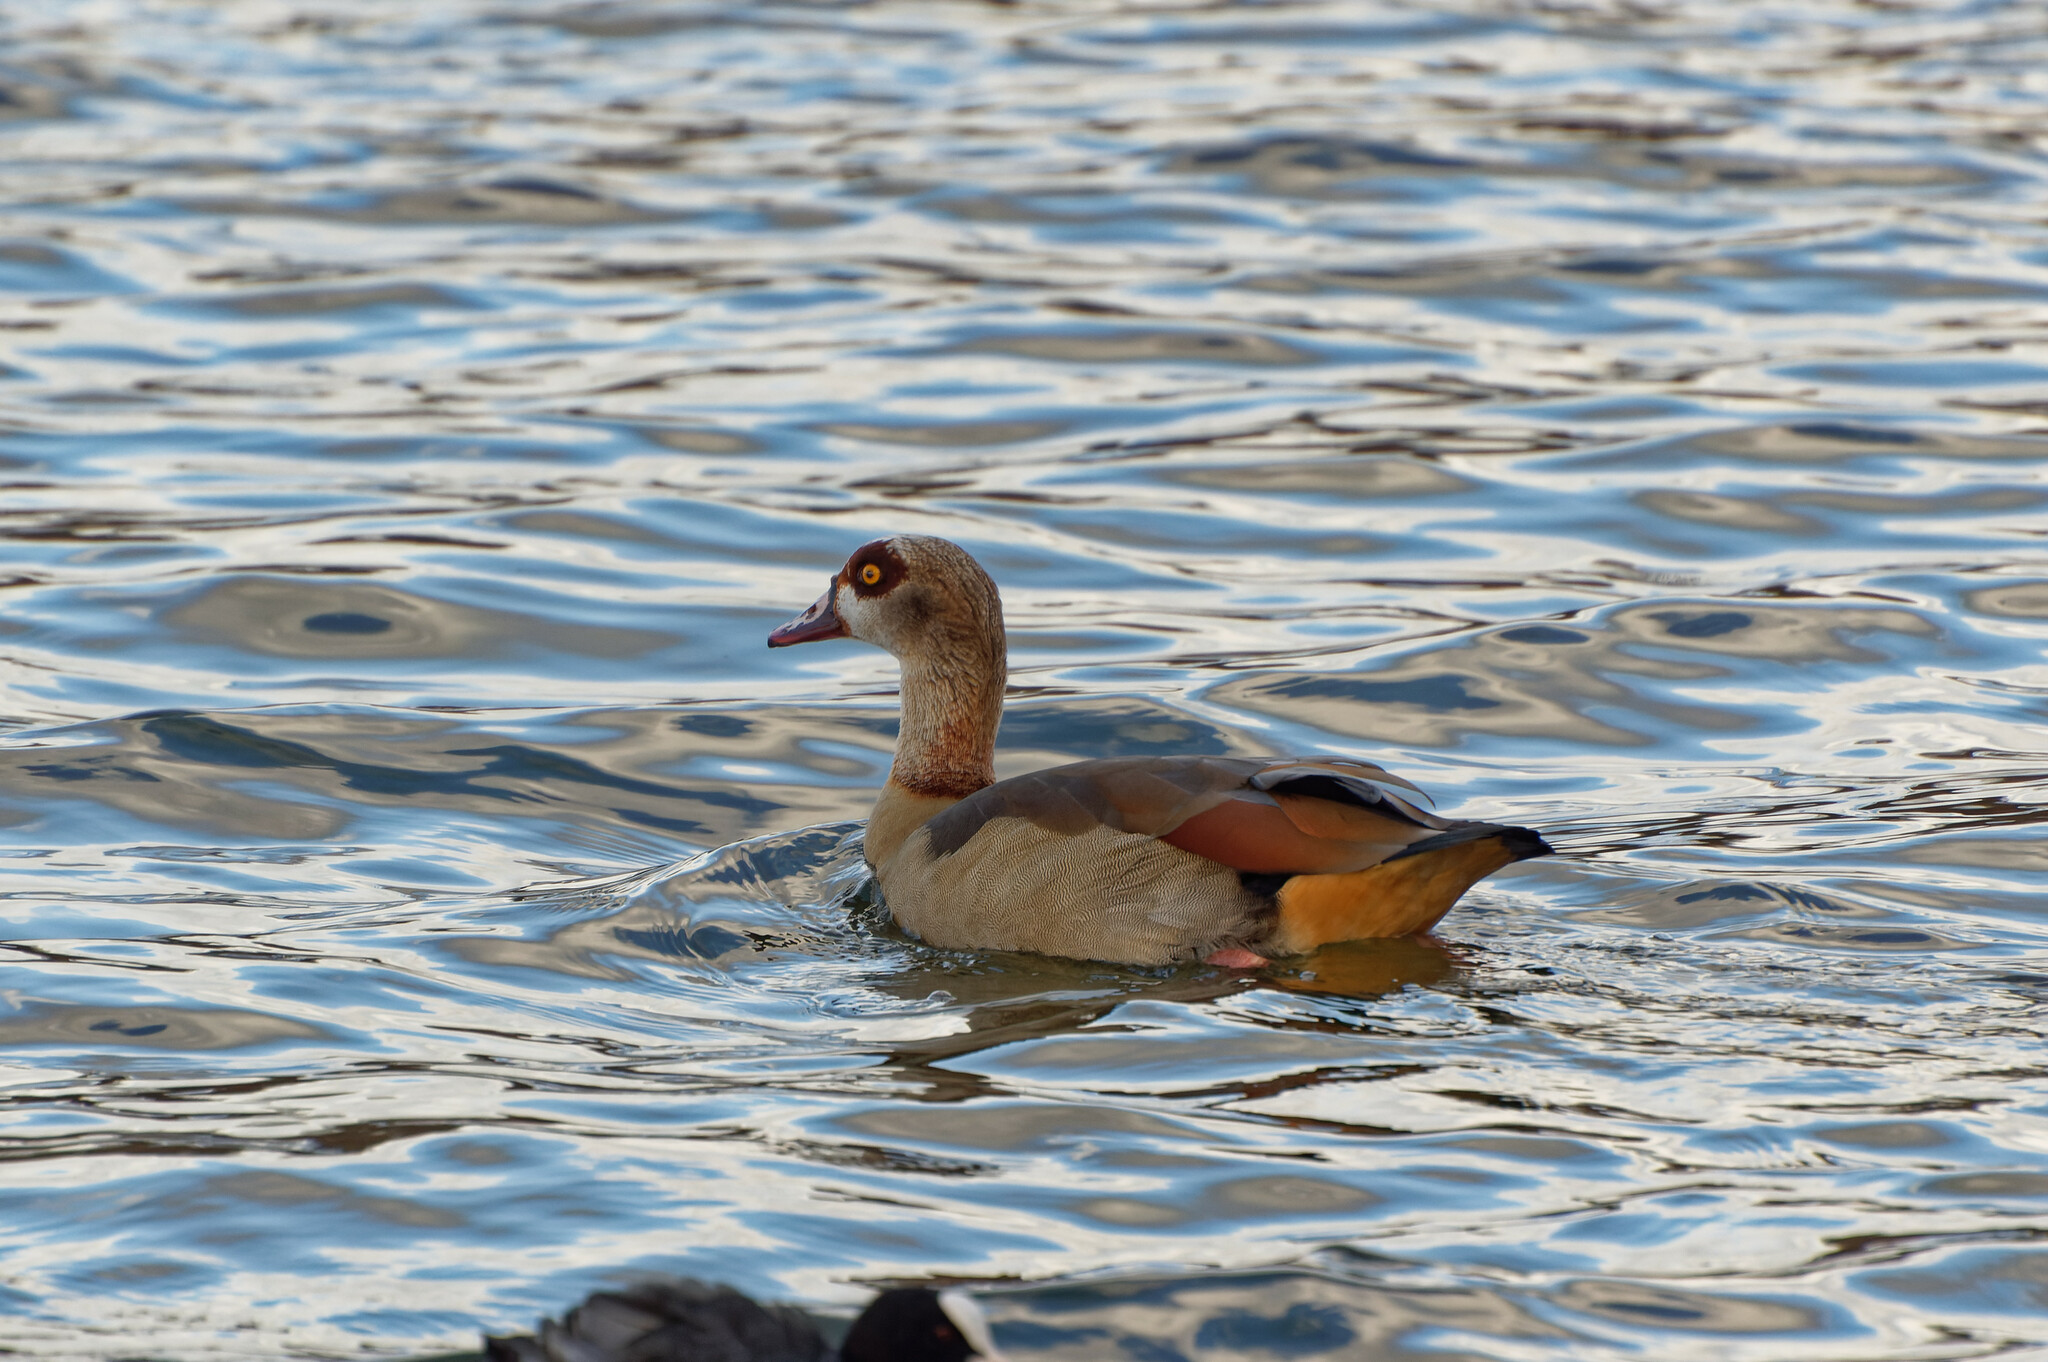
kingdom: Animalia
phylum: Chordata
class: Aves
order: Anseriformes
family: Anatidae
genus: Alopochen
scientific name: Alopochen aegyptiaca
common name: Egyptian goose
